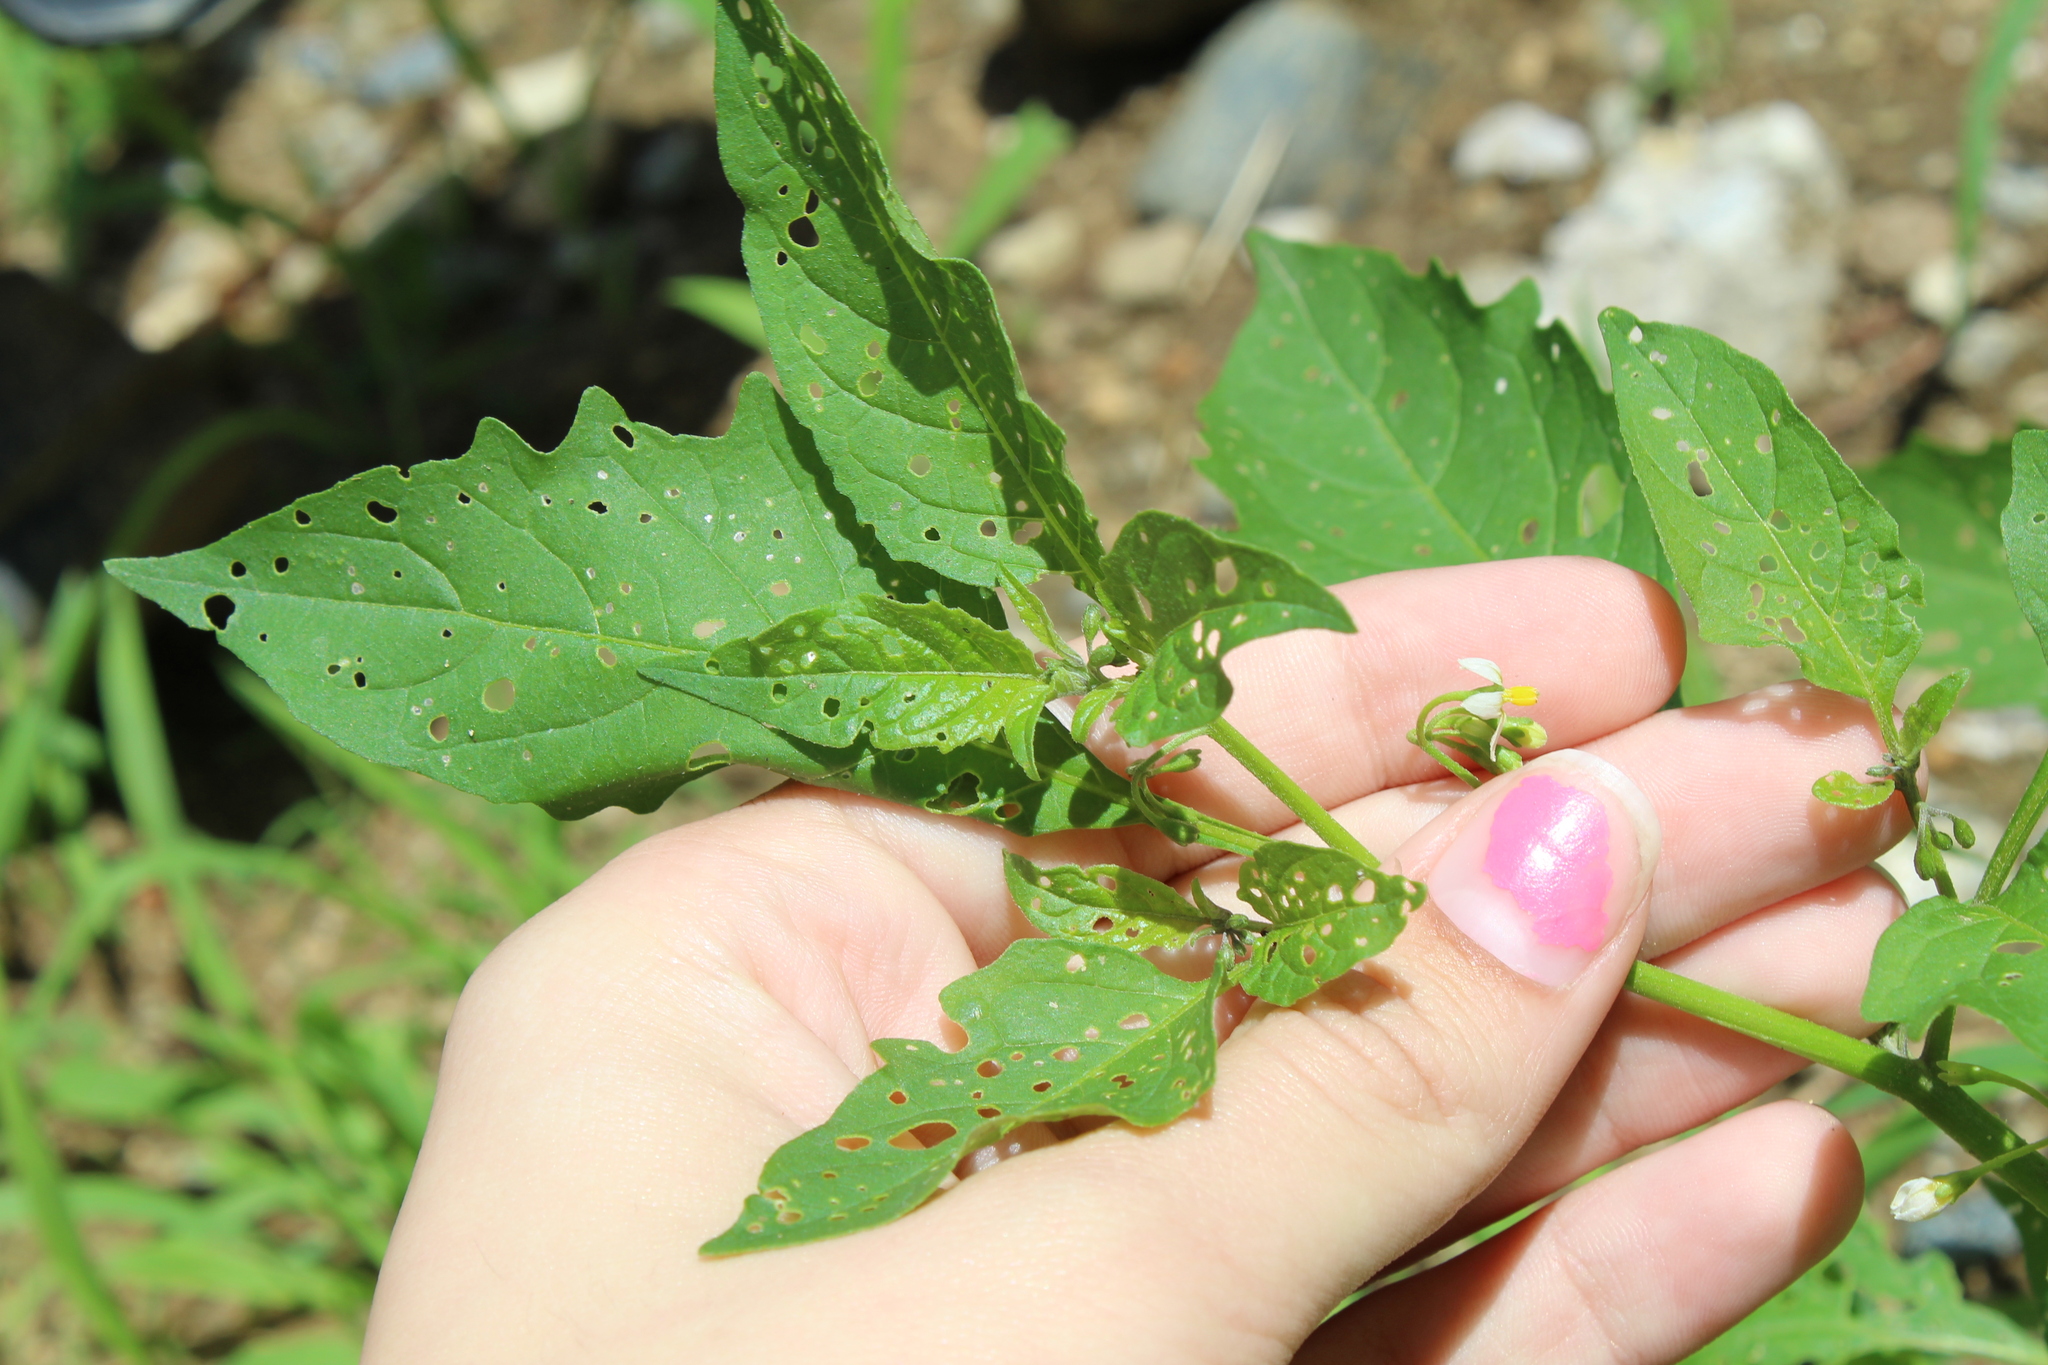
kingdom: Plantae
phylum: Tracheophyta
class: Magnoliopsida
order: Solanales
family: Solanaceae
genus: Solanum
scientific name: Solanum emulans
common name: Eastern black nightshade
